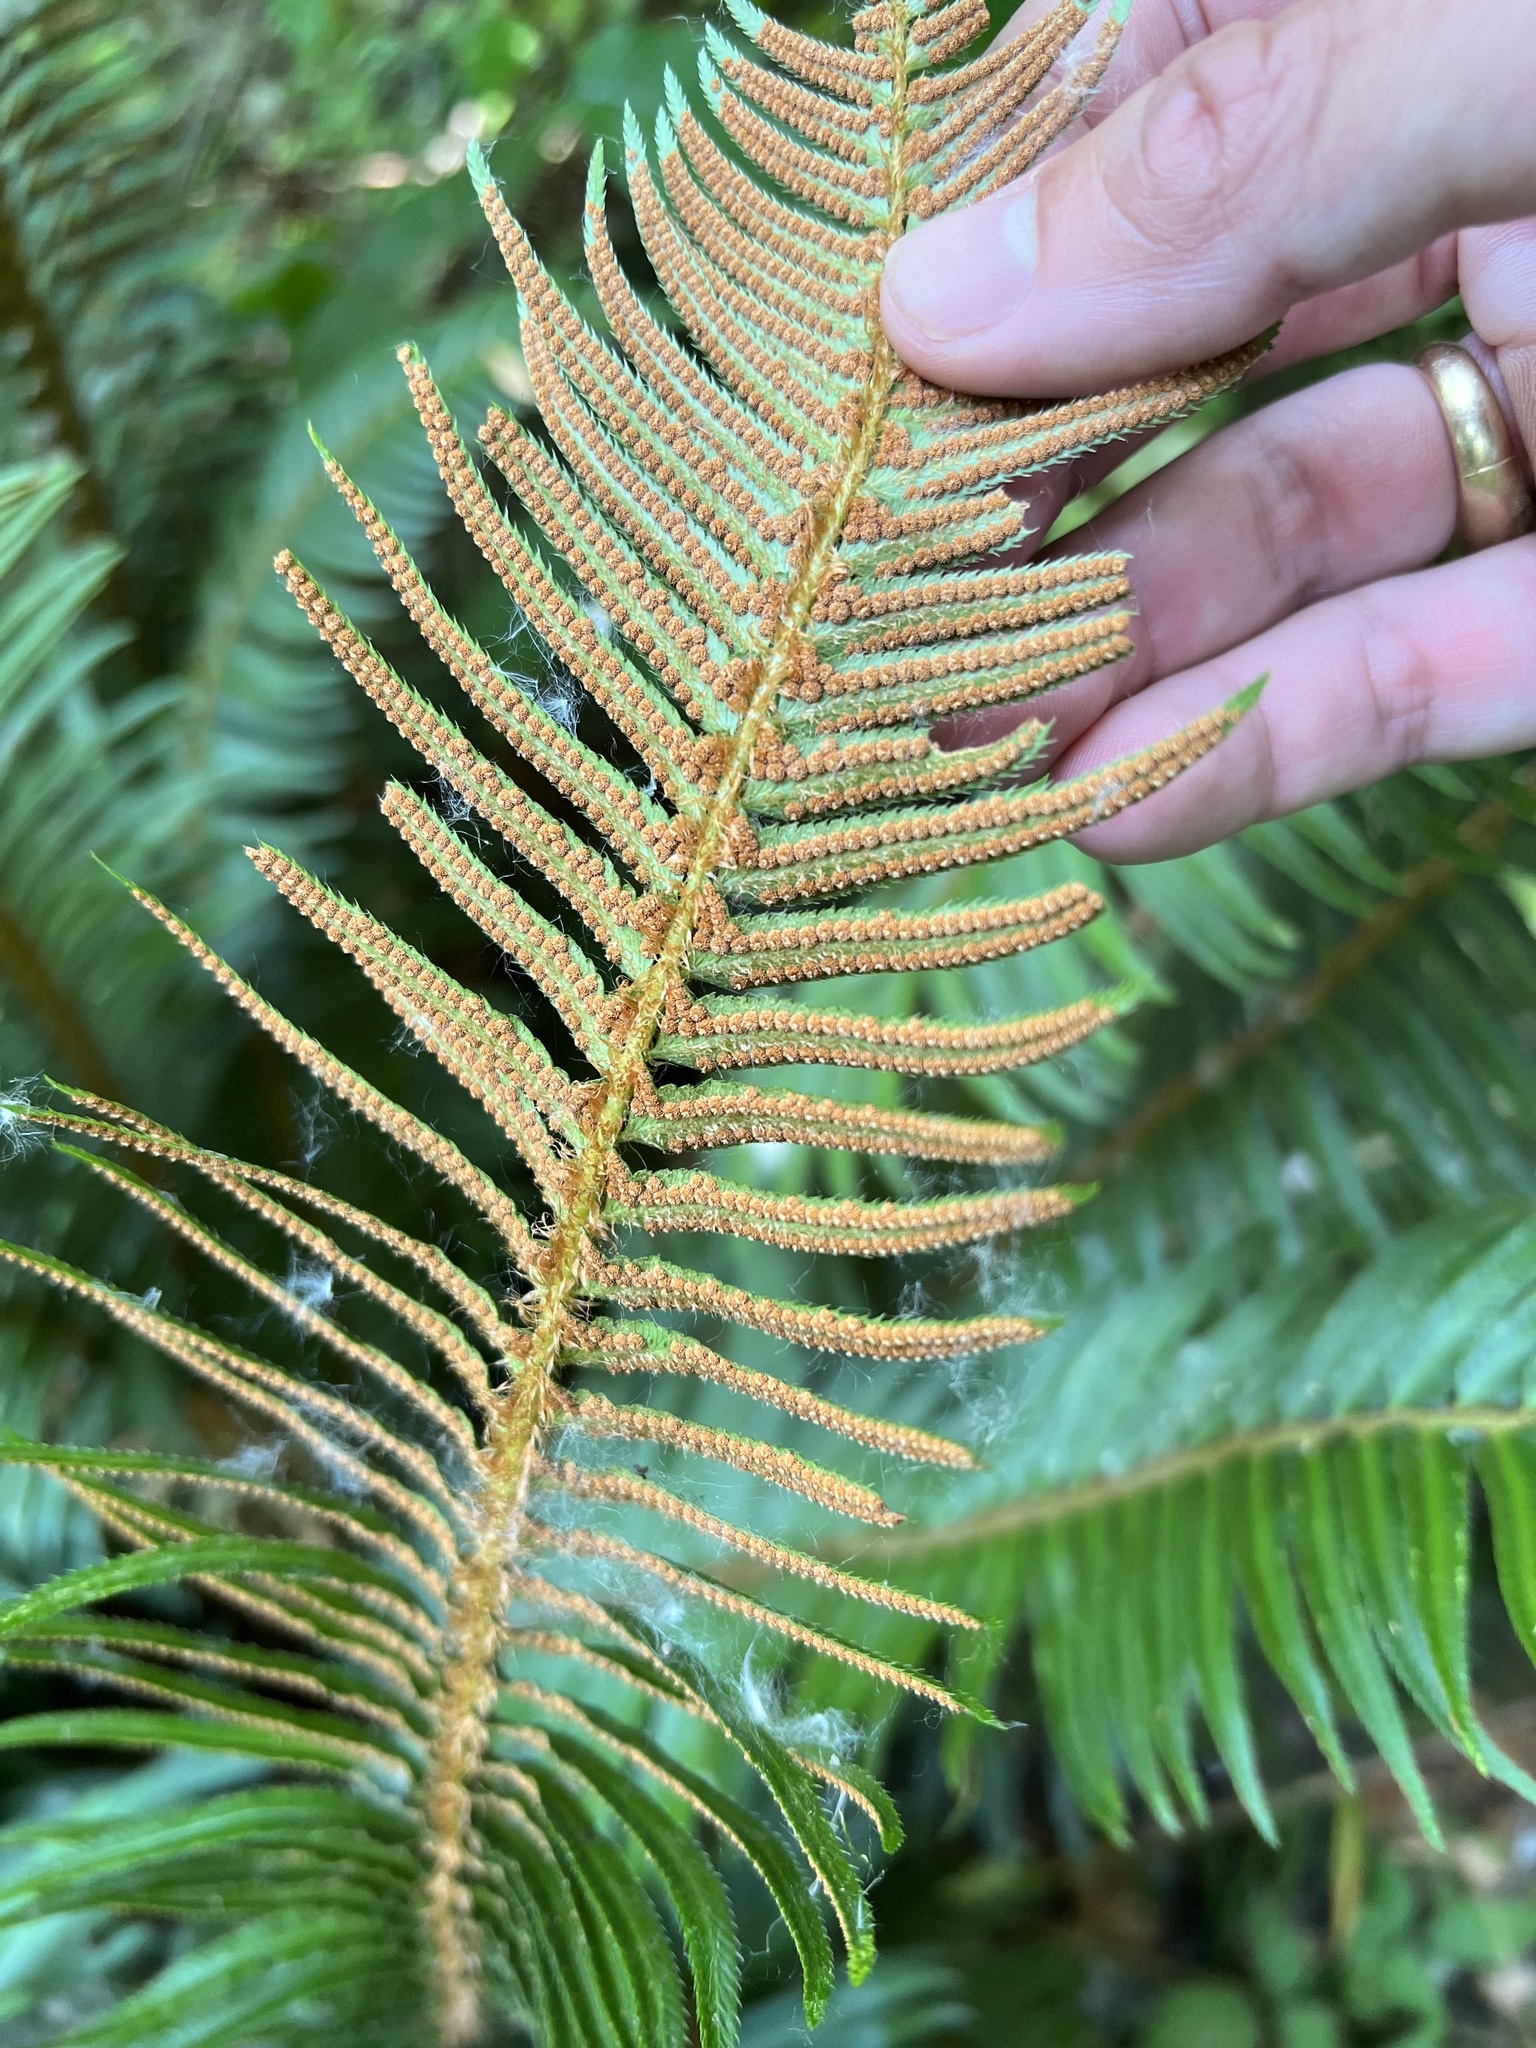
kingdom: Plantae
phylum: Tracheophyta
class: Polypodiopsida
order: Polypodiales
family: Dryopteridaceae
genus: Polystichum
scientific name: Polystichum munitum
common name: Western sword-fern
